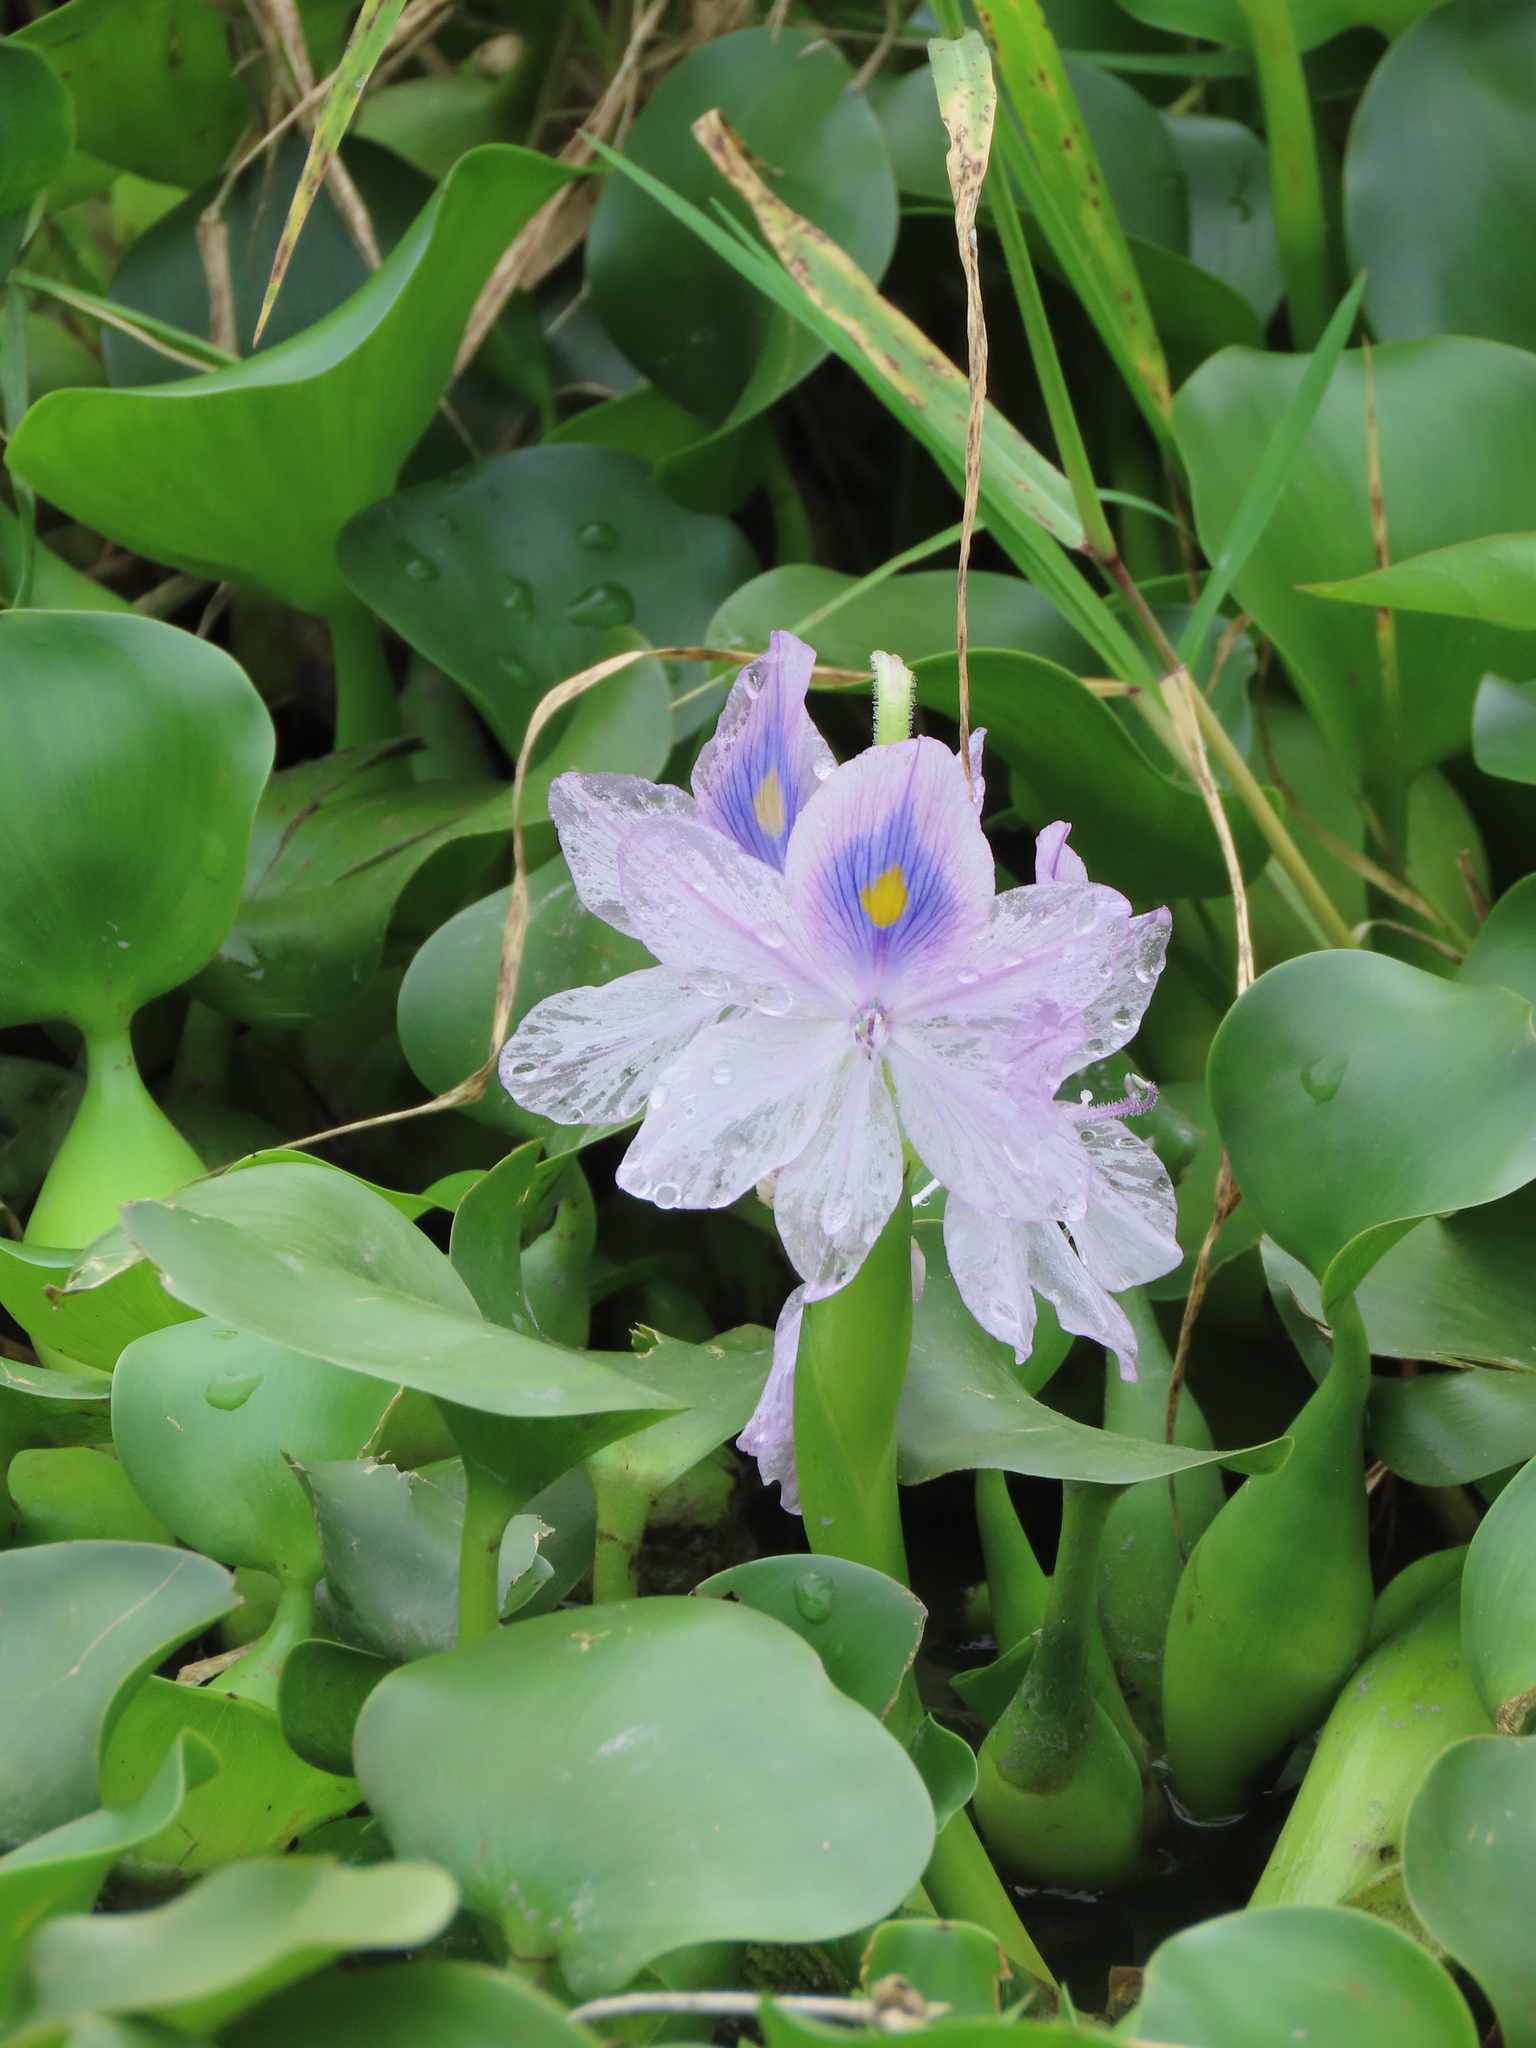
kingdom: Plantae
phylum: Tracheophyta
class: Liliopsida
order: Commelinales
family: Pontederiaceae
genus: Pontederia
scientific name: Pontederia crassipes
